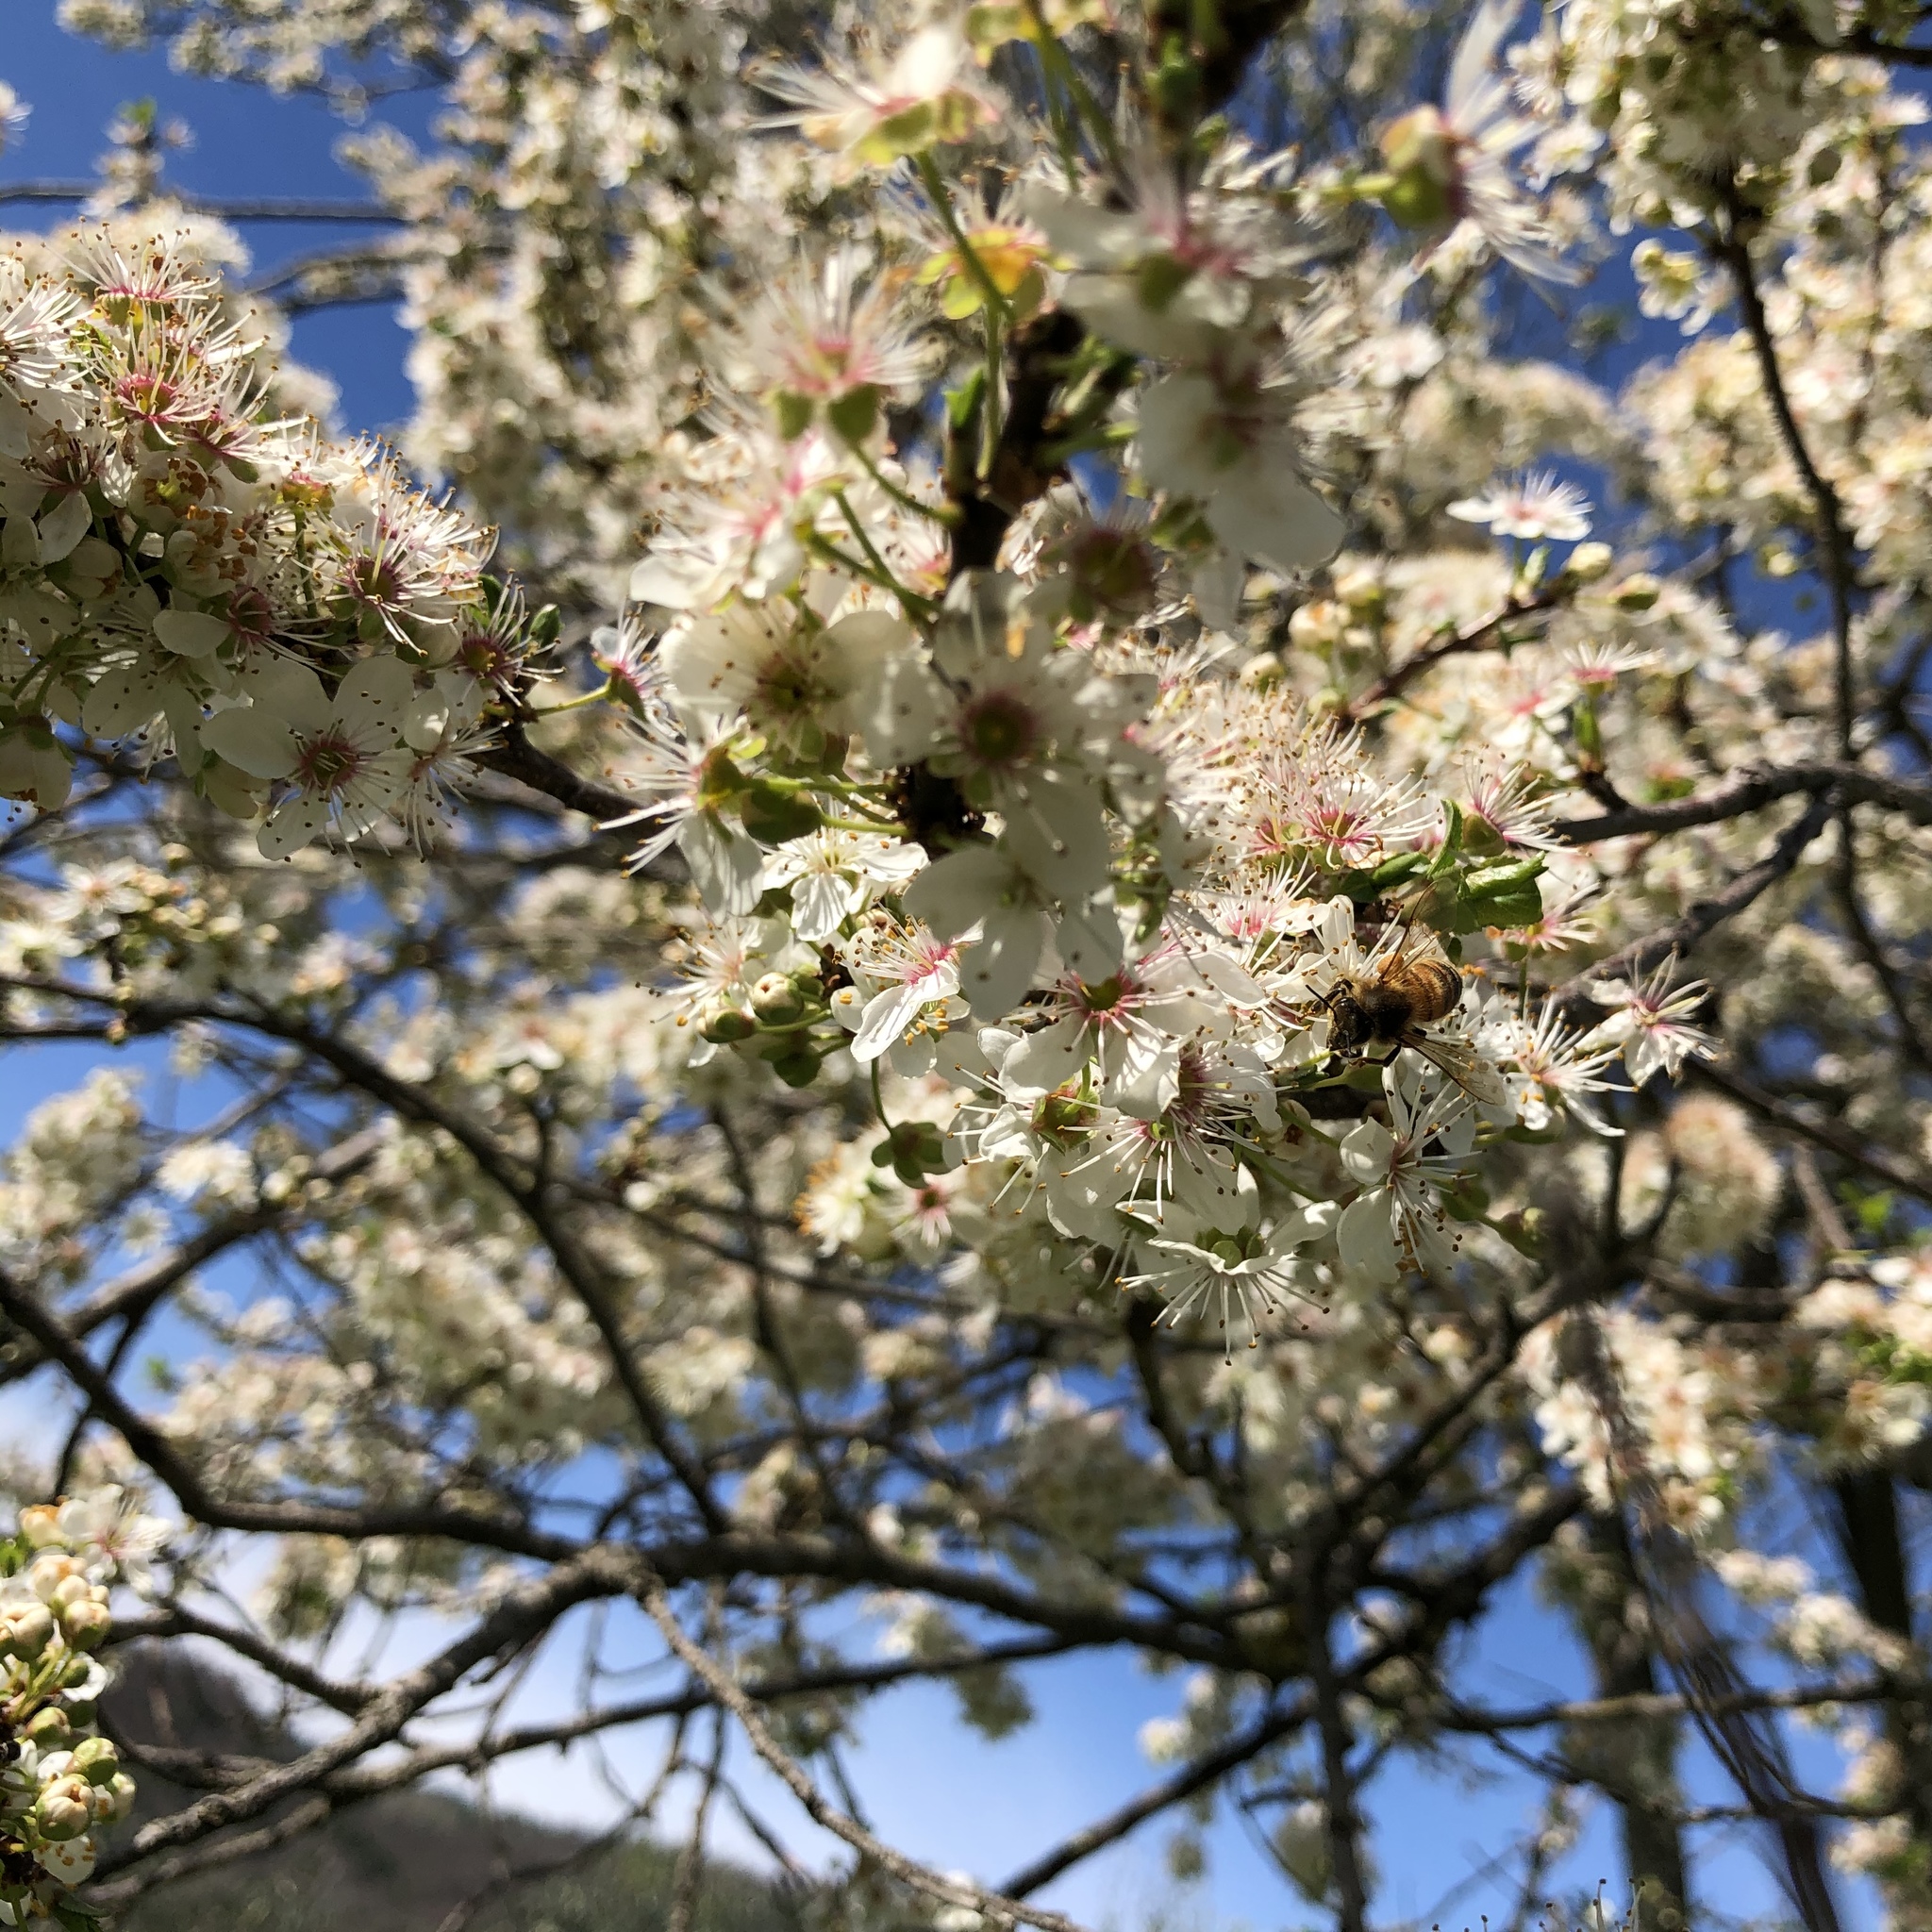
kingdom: Animalia
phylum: Arthropoda
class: Insecta
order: Hymenoptera
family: Apidae
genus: Apis
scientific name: Apis mellifera
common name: Honey bee
